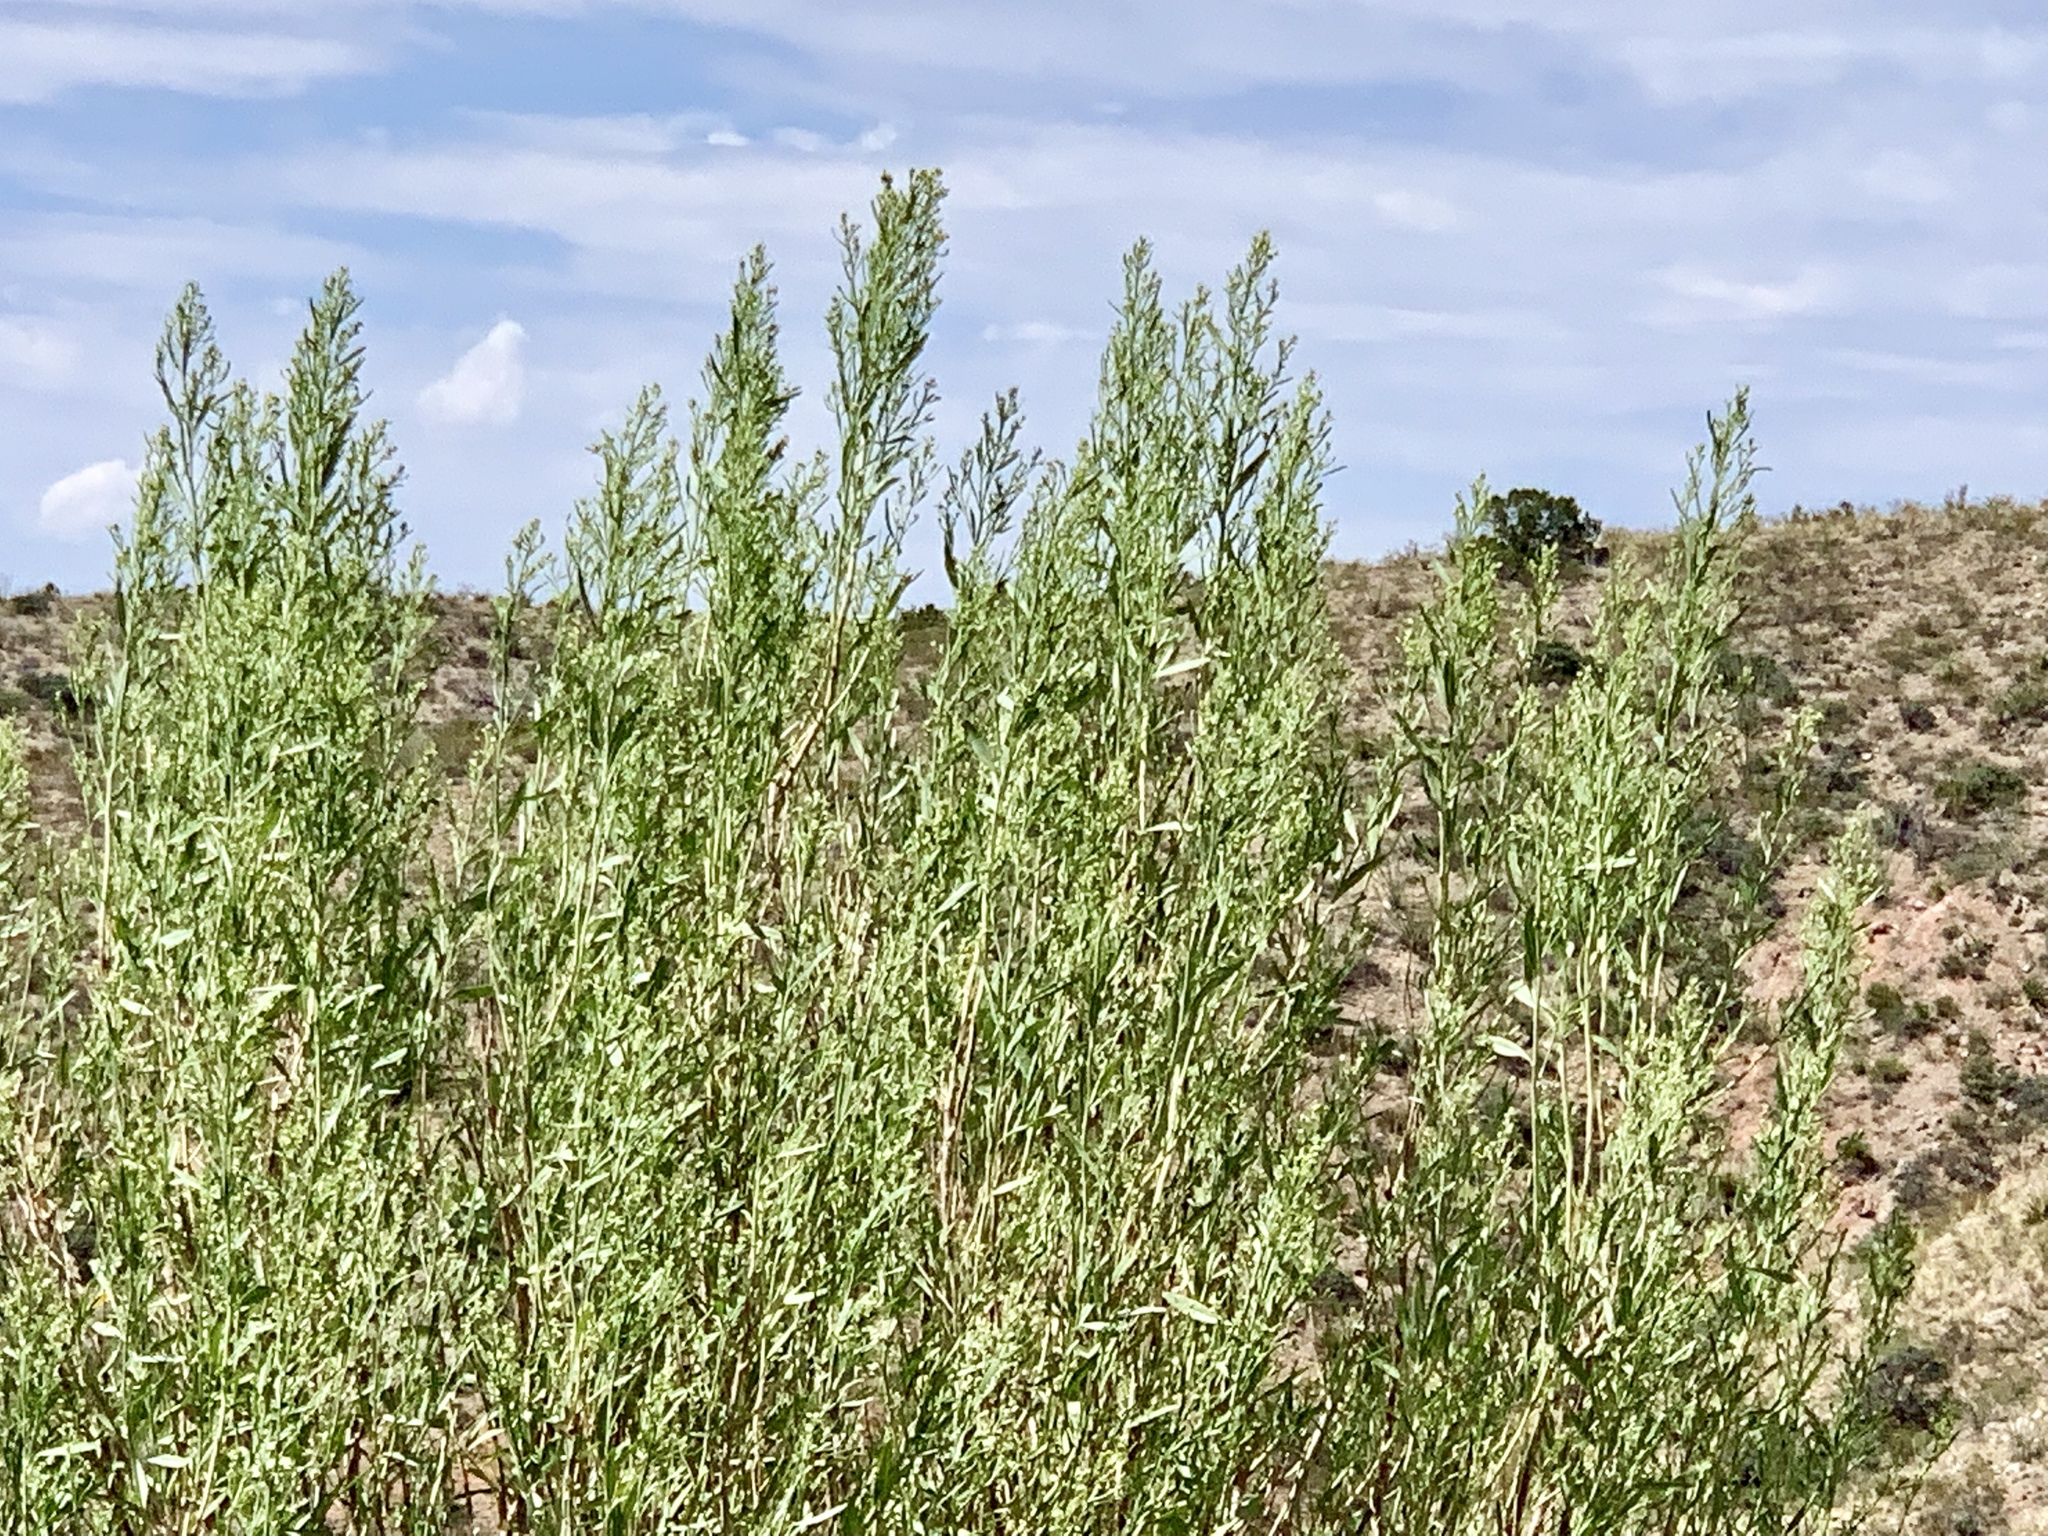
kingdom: Plantae
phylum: Tracheophyta
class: Magnoliopsida
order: Asterales
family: Asteraceae
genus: Baccharis
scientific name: Baccharis salicina
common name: Willow baccharis
